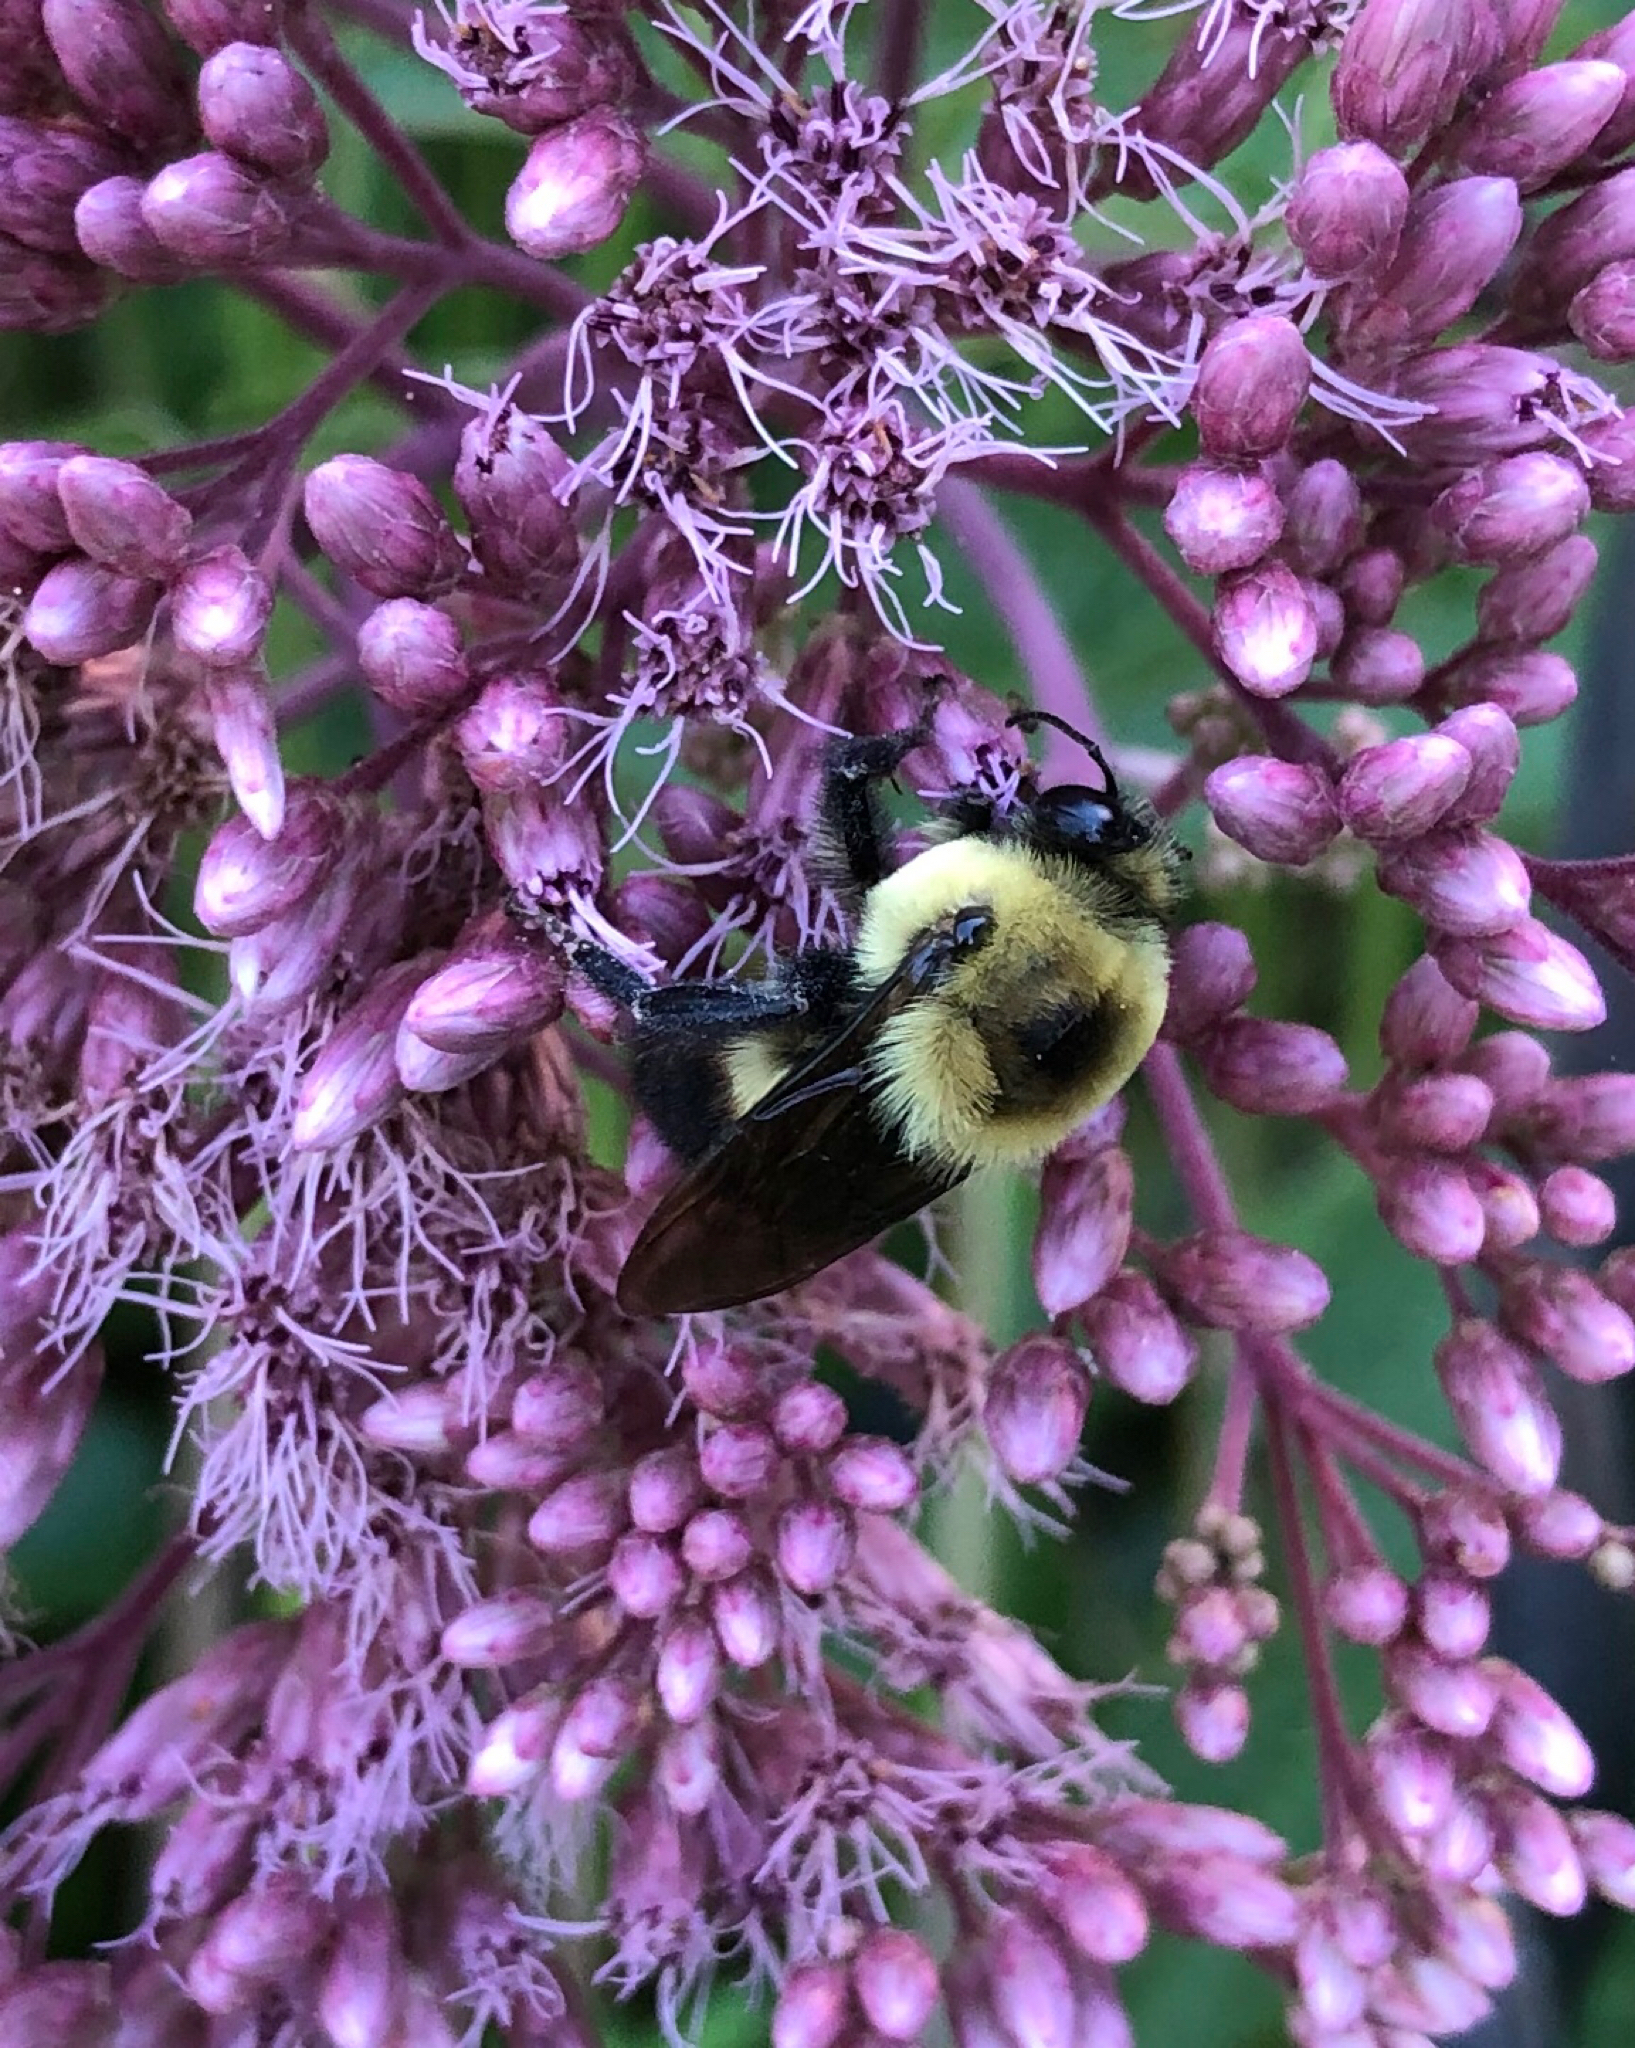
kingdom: Animalia
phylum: Arthropoda
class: Insecta
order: Hymenoptera
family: Apidae
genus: Bombus
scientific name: Bombus griseocollis
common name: Brown-belted bumble bee
